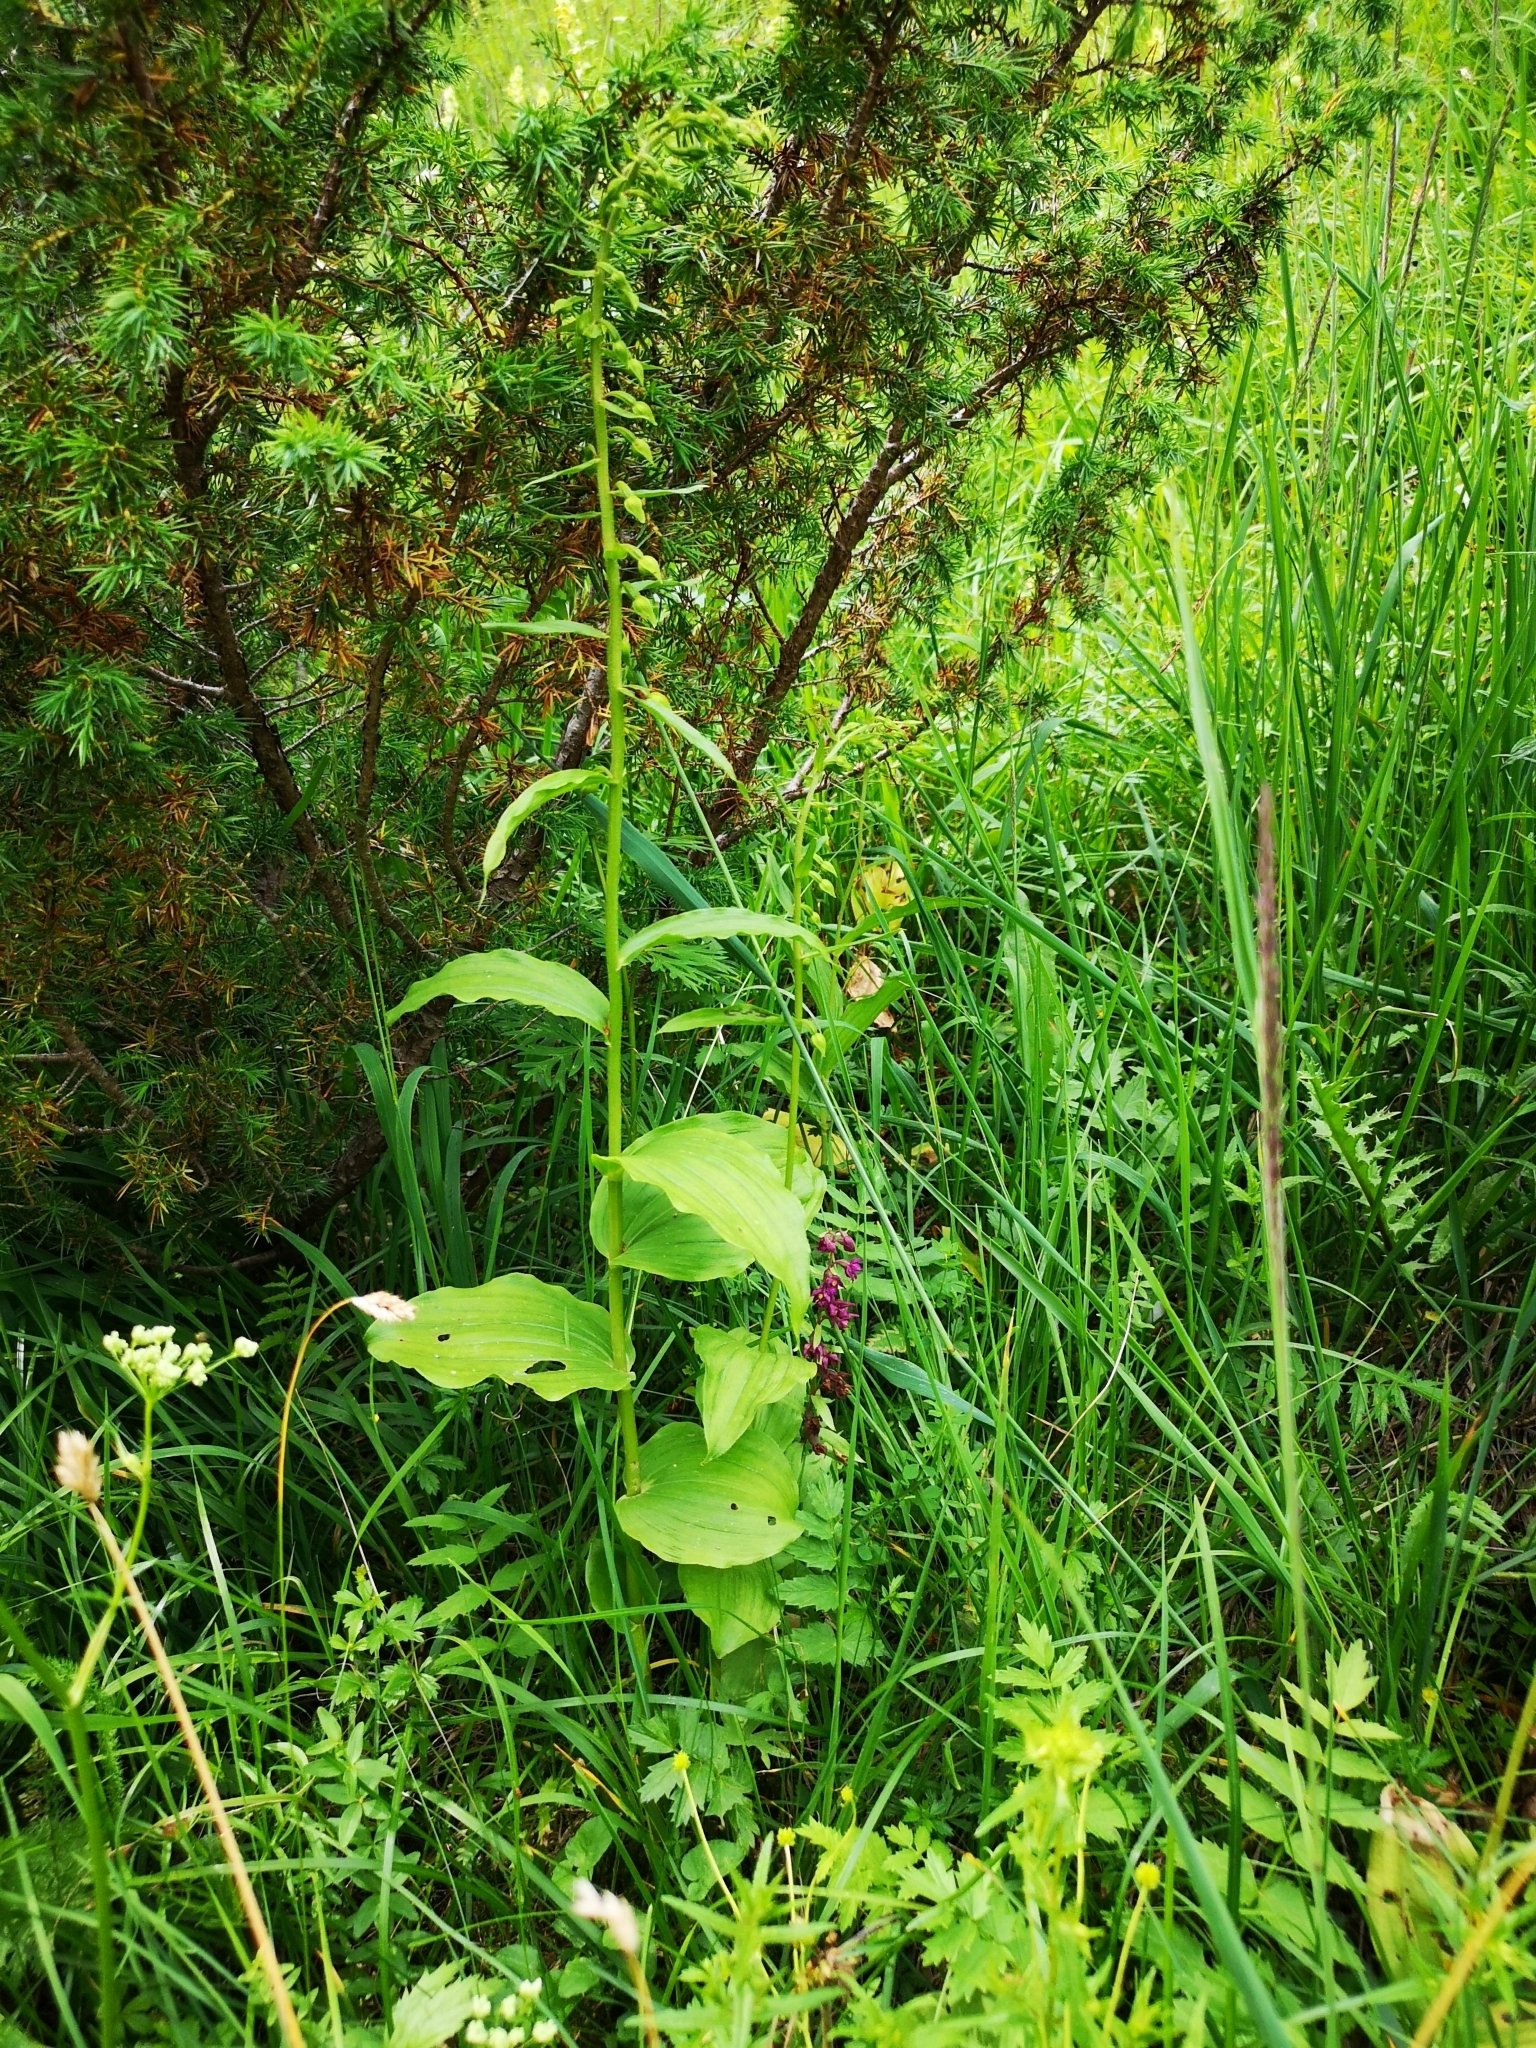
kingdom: Plantae
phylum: Tracheophyta
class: Liliopsida
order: Asparagales
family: Orchidaceae
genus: Epipactis
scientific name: Epipactis helleborine
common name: Broad-leaved helleborine
